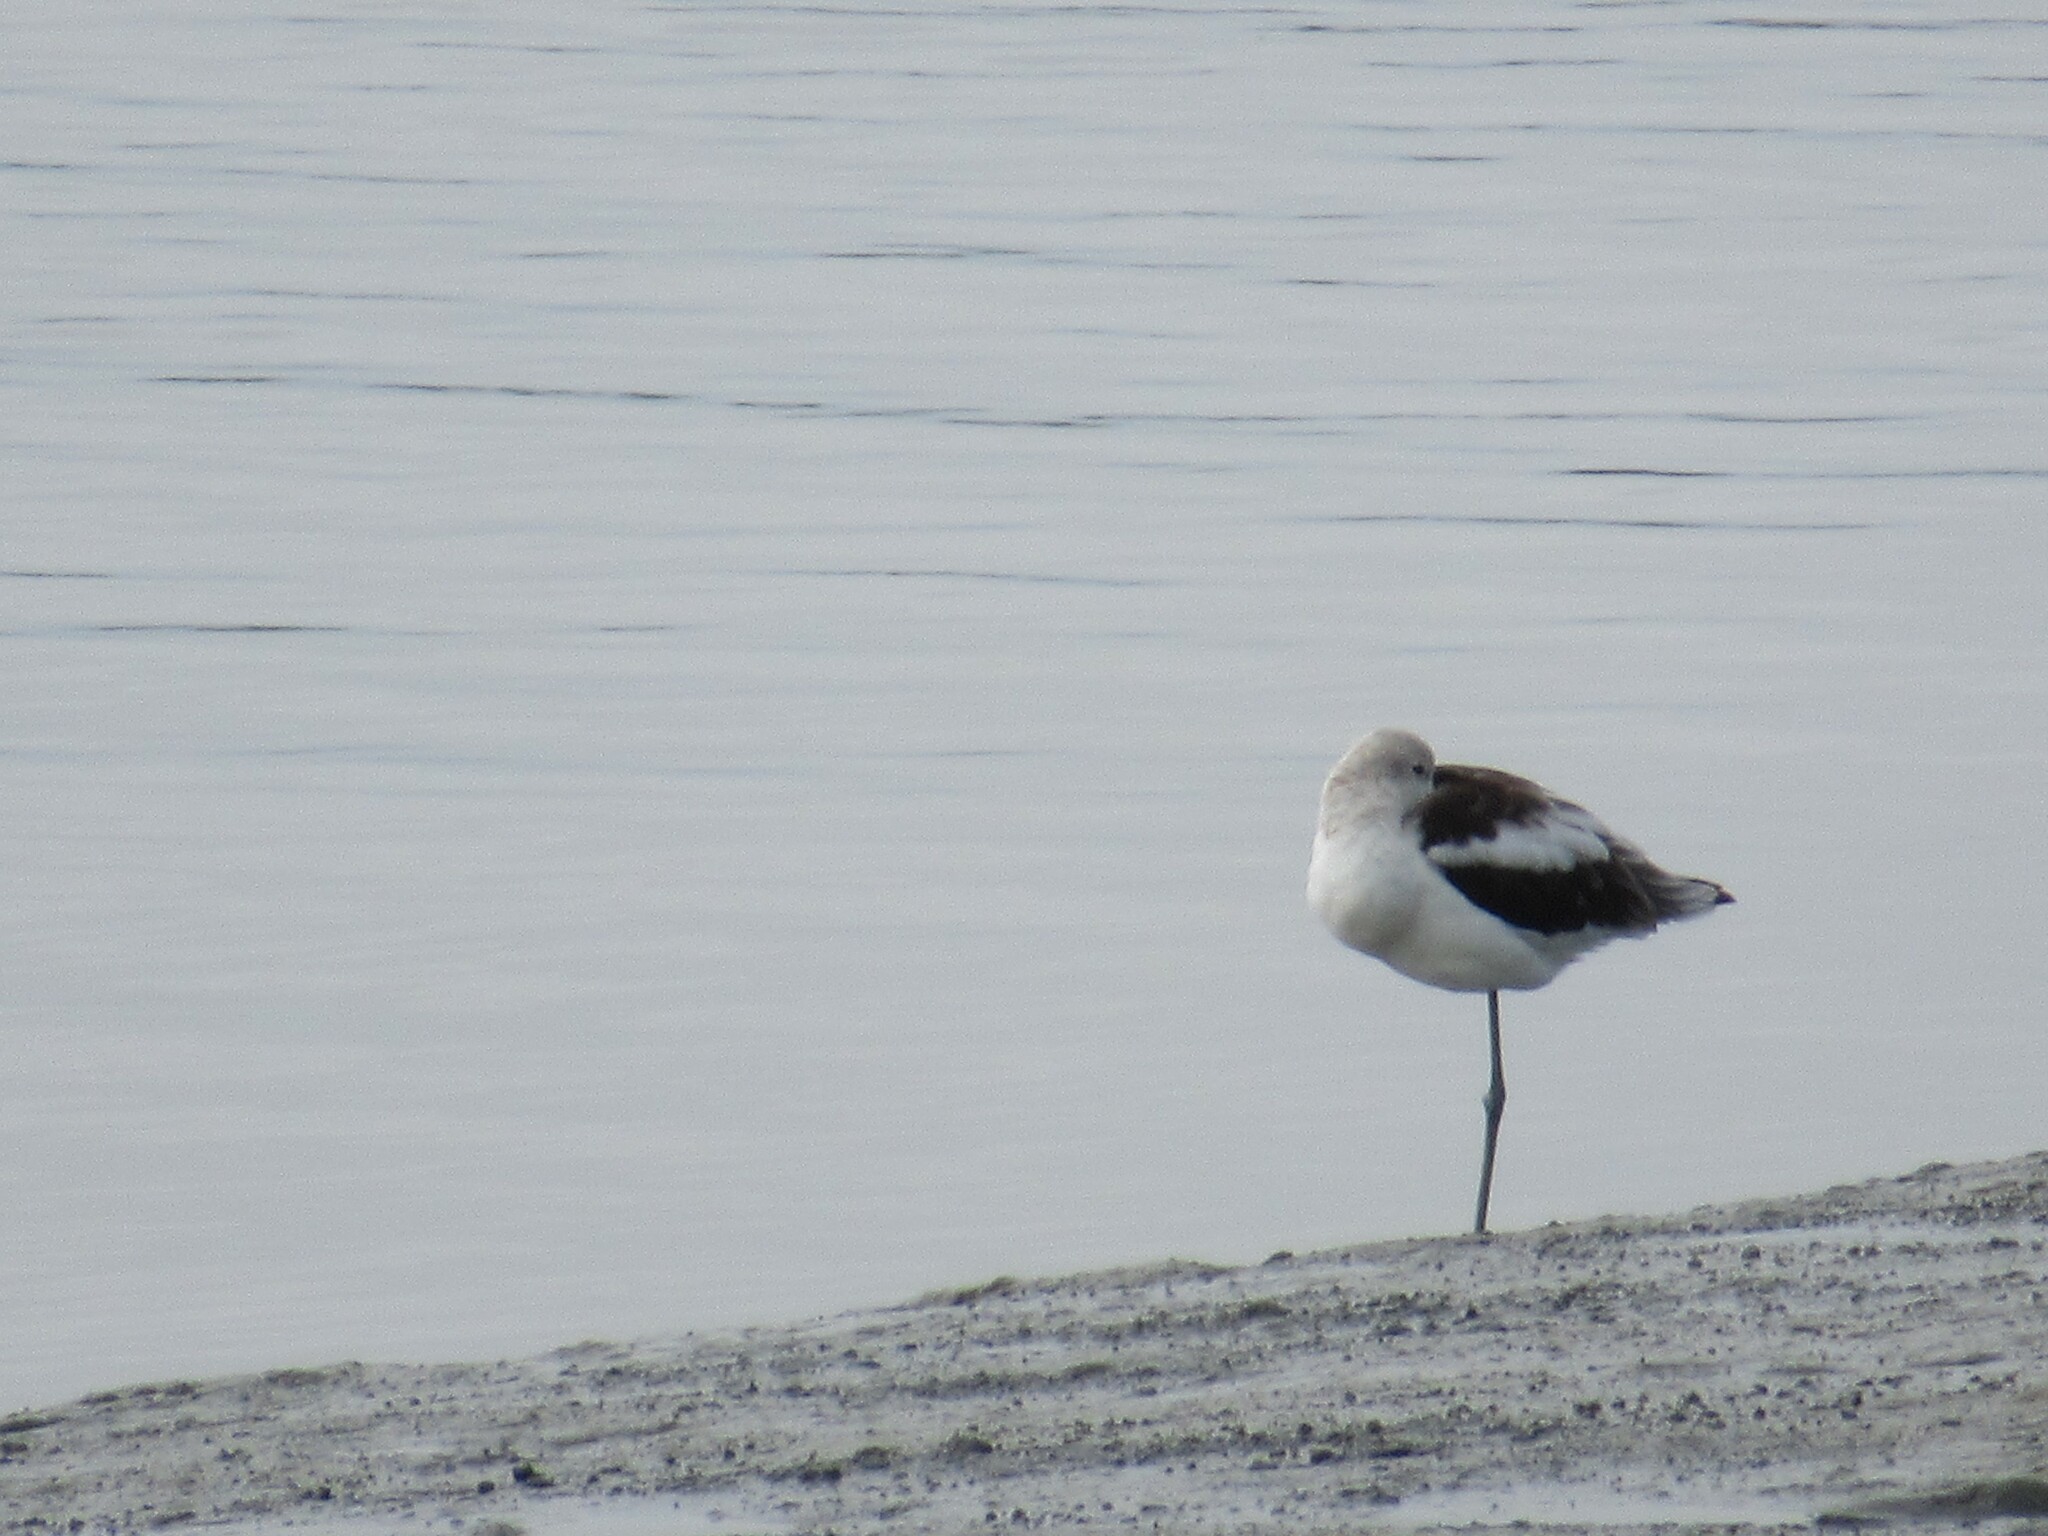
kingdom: Animalia
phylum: Chordata
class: Aves
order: Charadriiformes
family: Recurvirostridae
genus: Recurvirostra
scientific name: Recurvirostra americana
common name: American avocet
